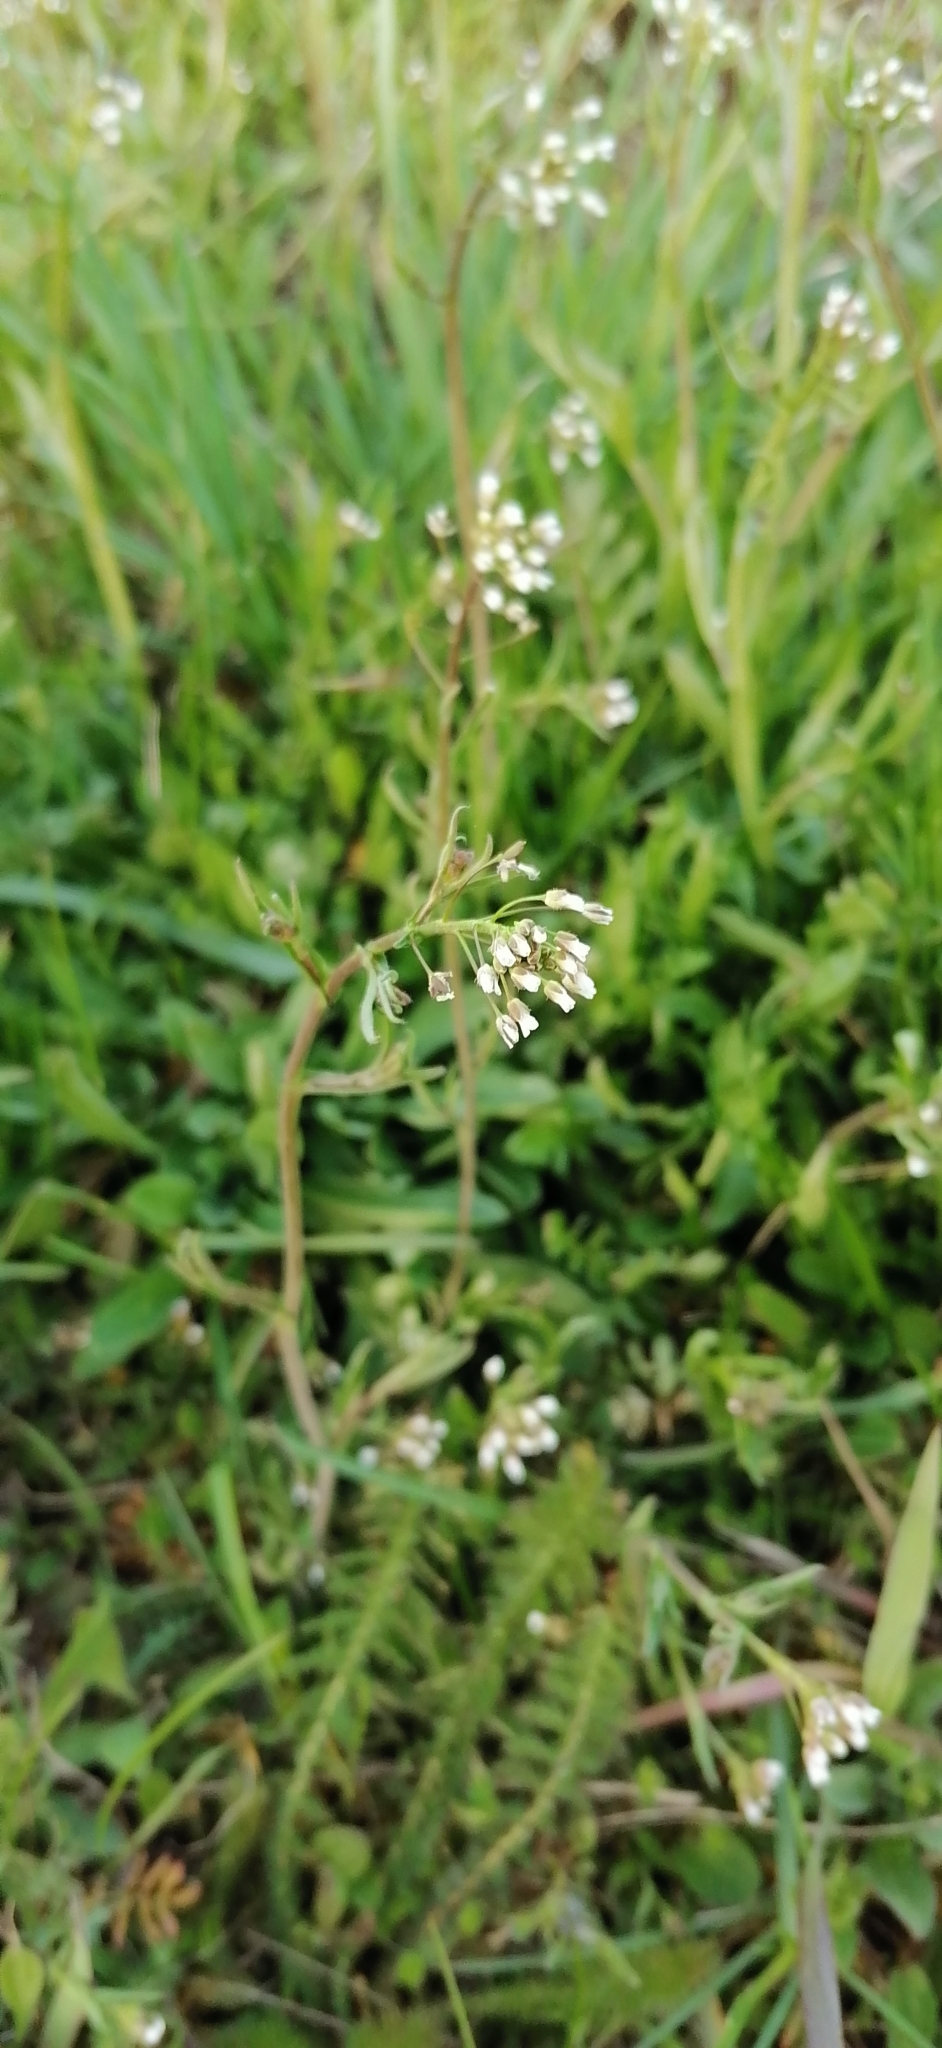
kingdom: Plantae
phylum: Tracheophyta
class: Magnoliopsida
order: Brassicales
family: Brassicaceae
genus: Capsella
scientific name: Capsella bursa-pastoris
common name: Shepherd's purse
